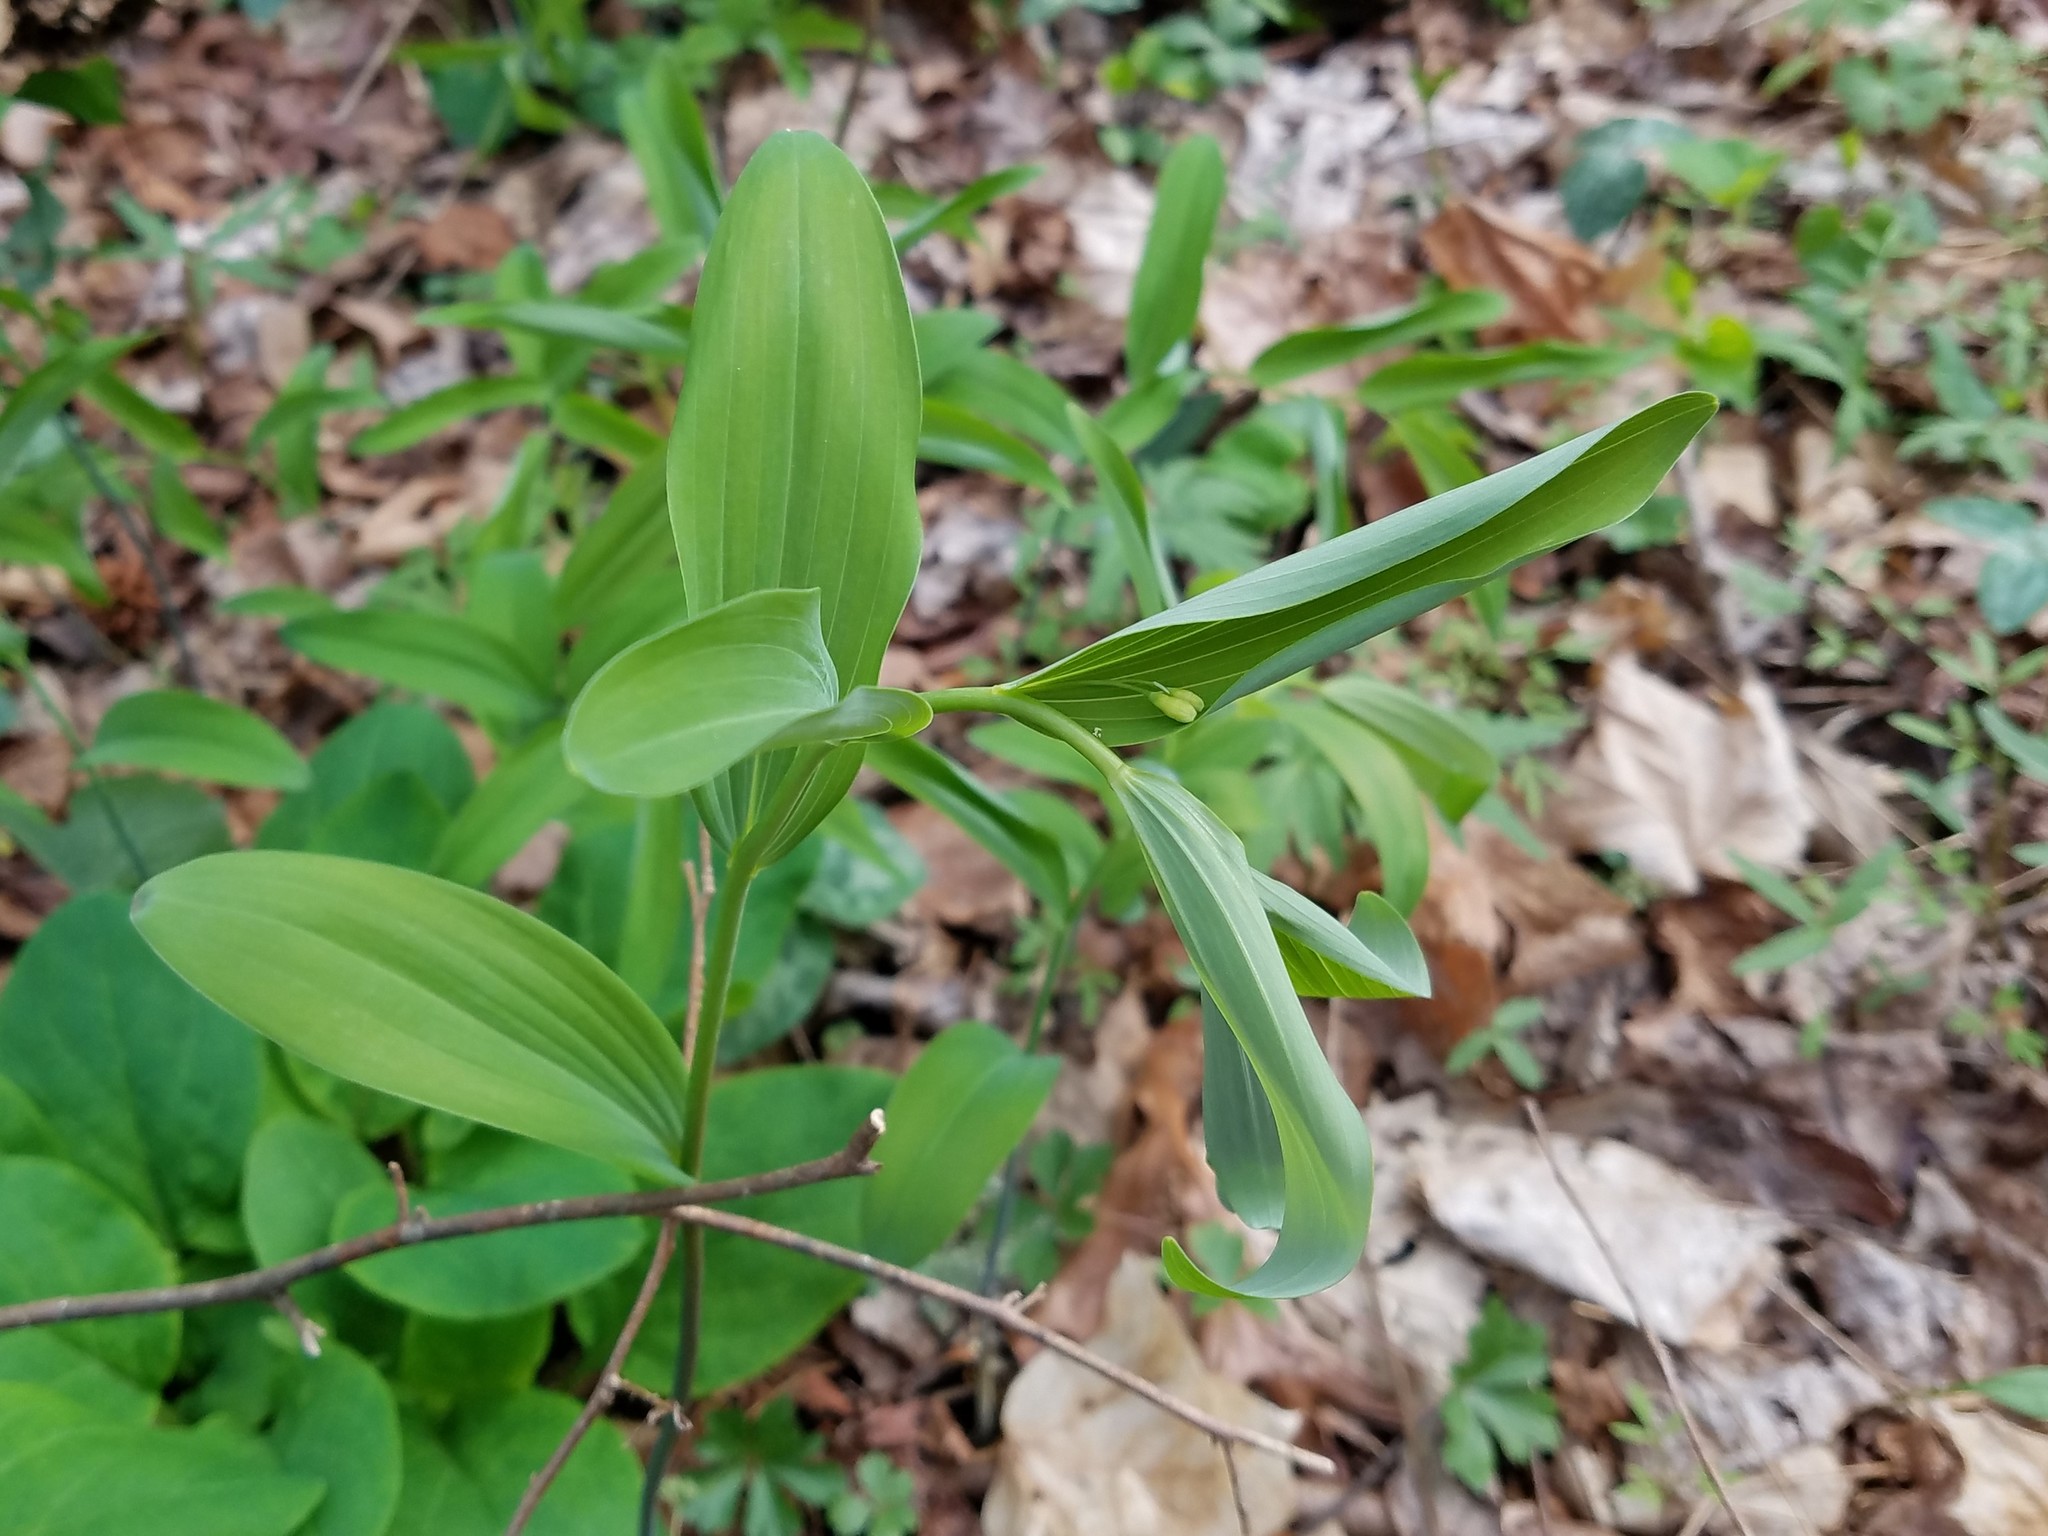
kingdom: Plantae
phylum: Tracheophyta
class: Liliopsida
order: Asparagales
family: Asparagaceae
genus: Polygonatum
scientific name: Polygonatum biflorum
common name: American solomon's-seal
